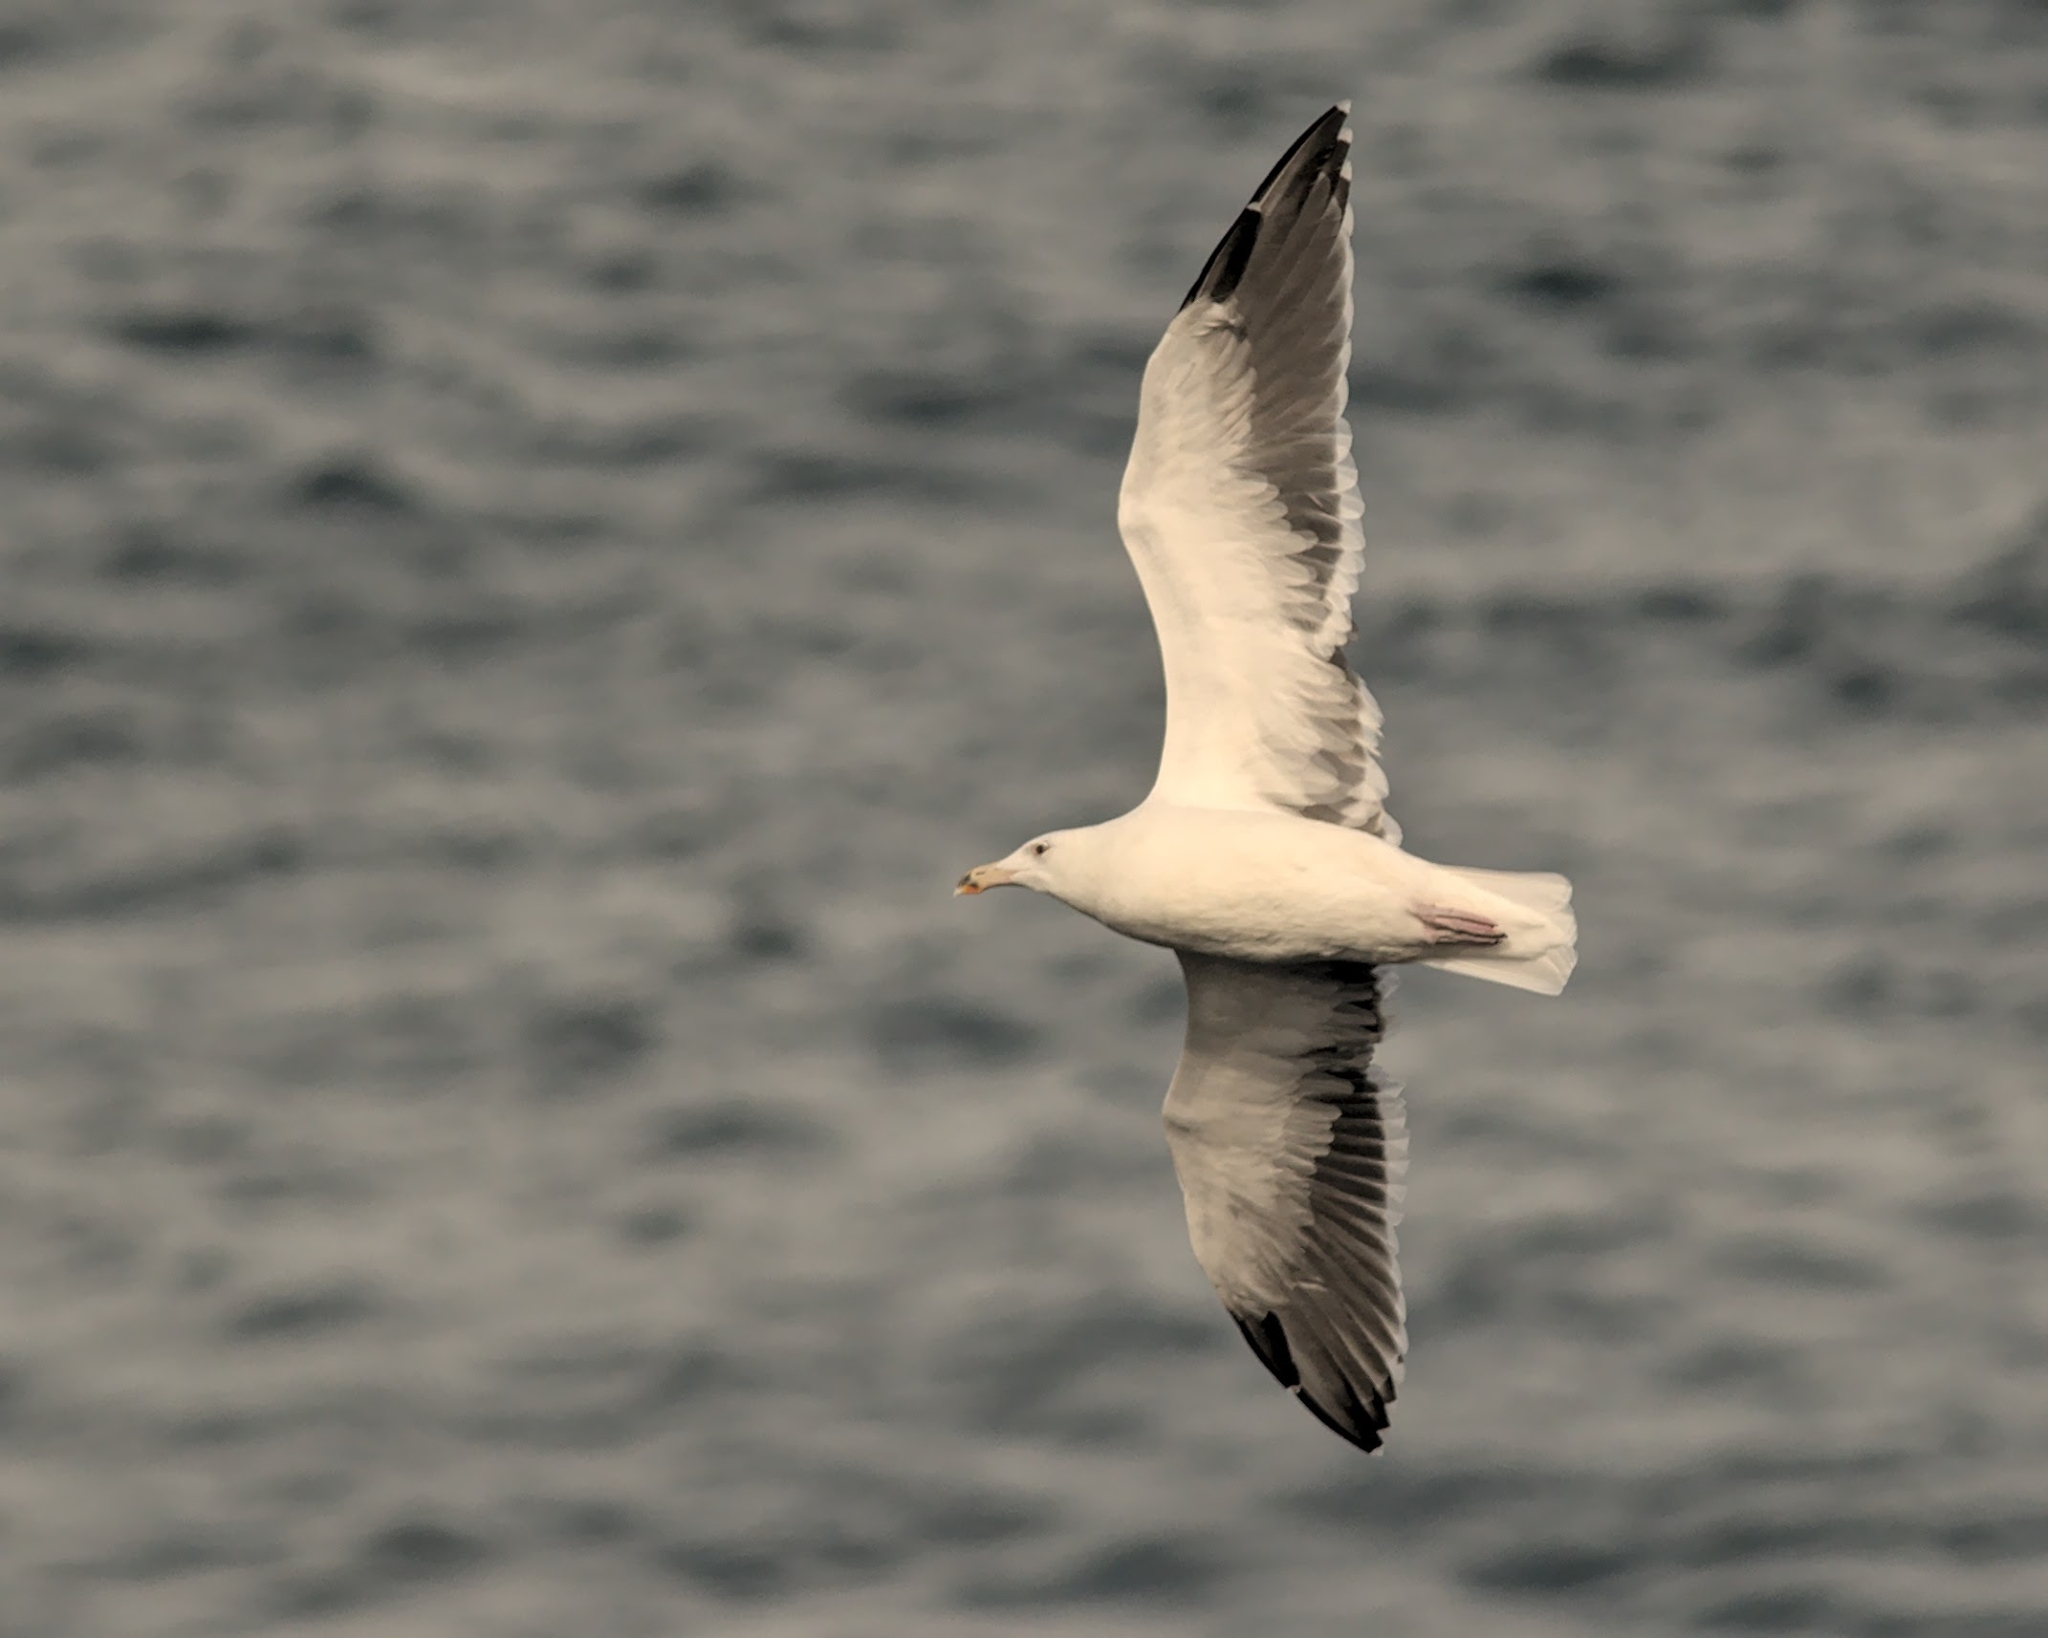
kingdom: Animalia
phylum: Chordata
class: Aves
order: Charadriiformes
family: Laridae
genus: Larus
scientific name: Larus marinus
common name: Great black-backed gull
